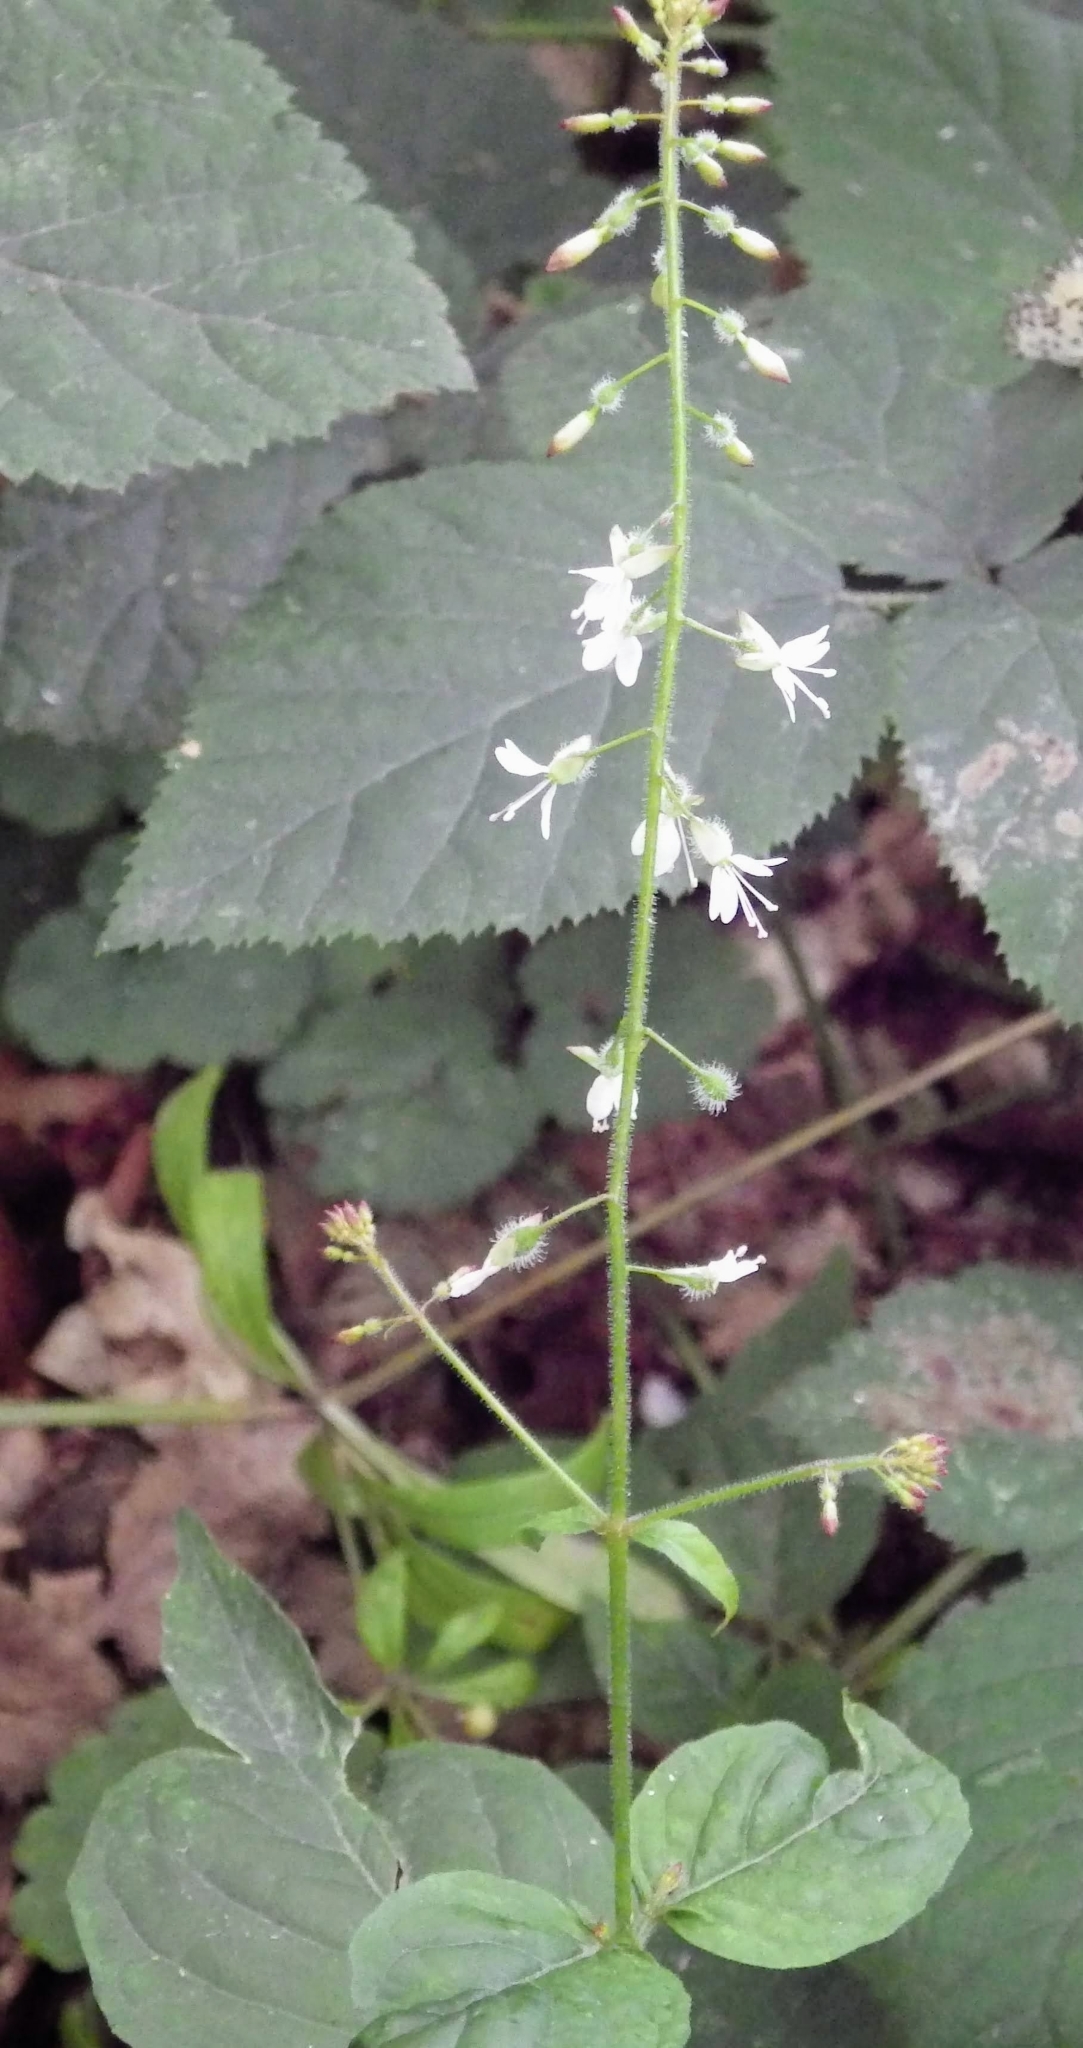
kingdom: Plantae
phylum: Tracheophyta
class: Magnoliopsida
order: Myrtales
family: Onagraceae
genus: Circaea
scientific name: Circaea lutetiana
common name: Enchanter's-nightshade
